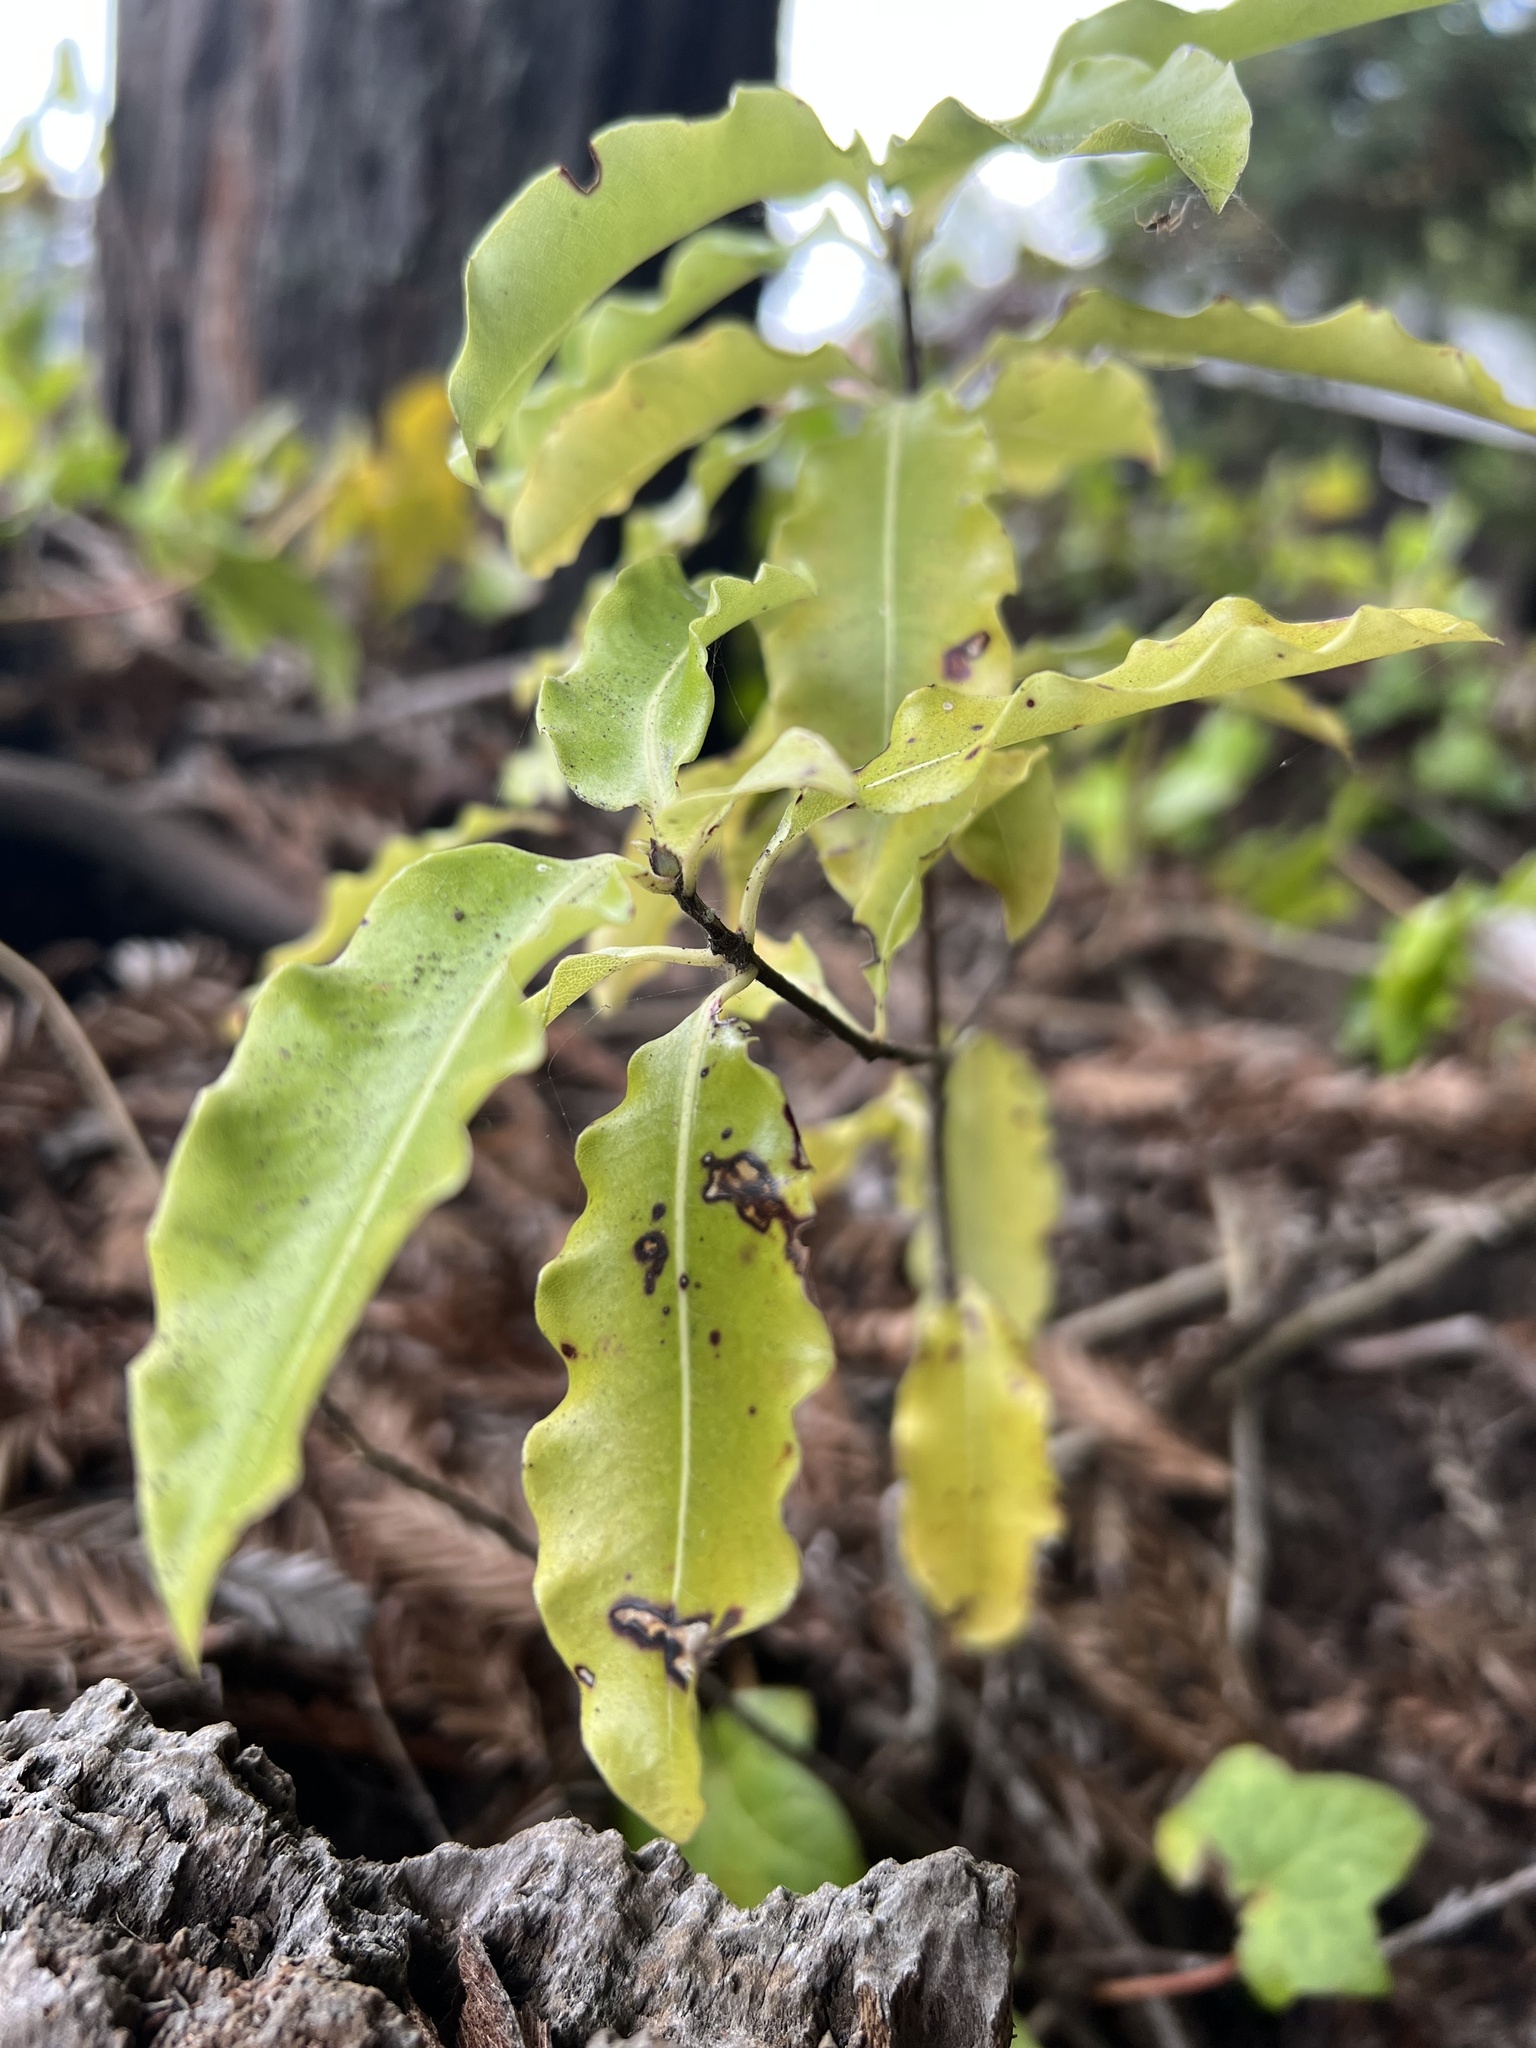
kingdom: Plantae
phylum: Tracheophyta
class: Magnoliopsida
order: Apiales
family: Pittosporaceae
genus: Pittosporum
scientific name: Pittosporum eugenioides
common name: Lemonwood
